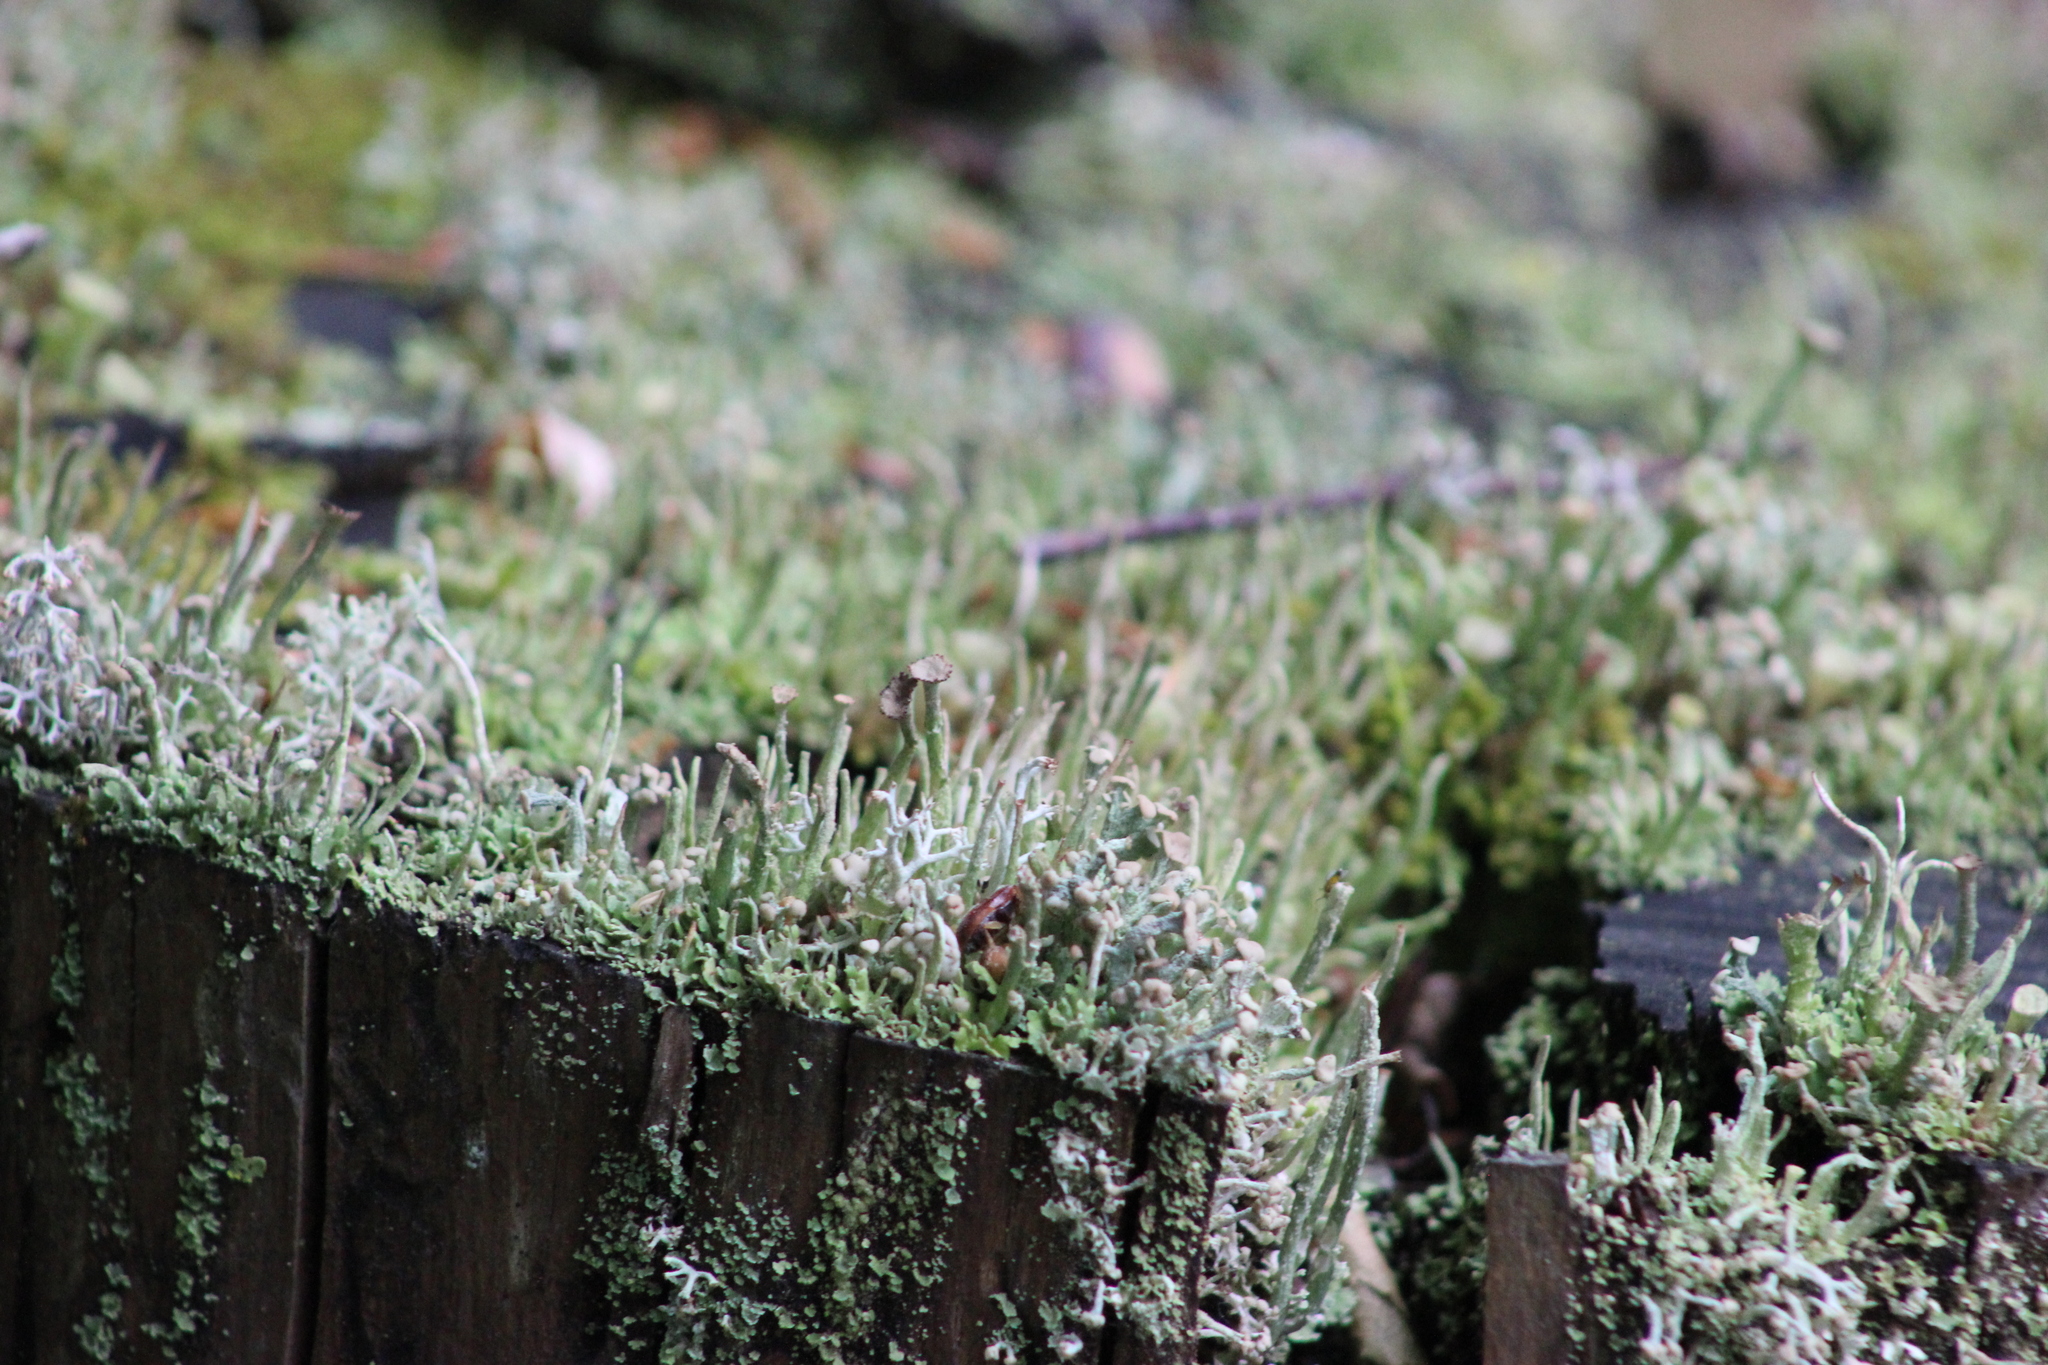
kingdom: Fungi
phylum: Ascomycota
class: Lecanoromycetes
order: Lecanorales
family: Cladoniaceae
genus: Cladonia
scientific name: Cladonia botrytes
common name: Stump lichen
